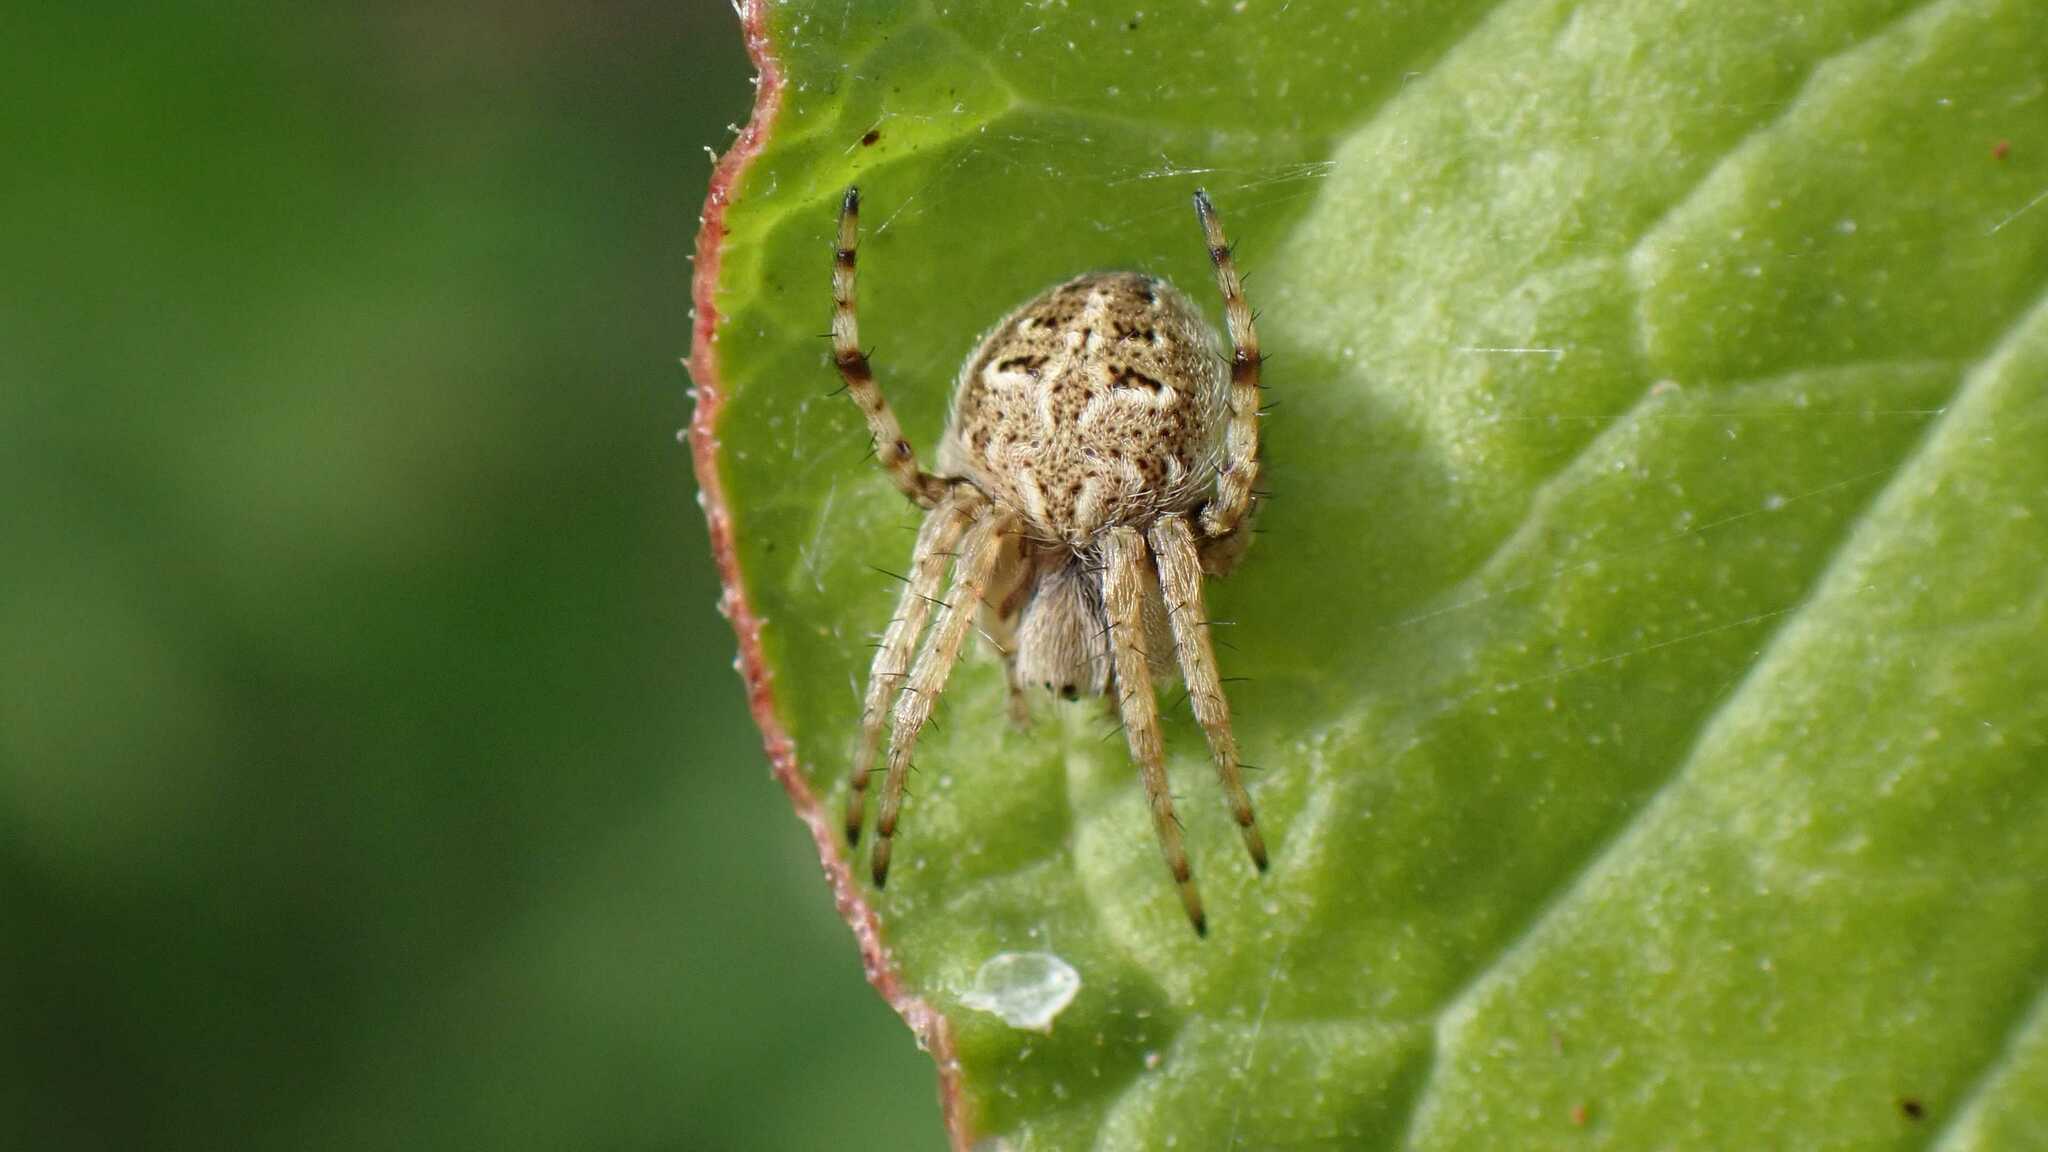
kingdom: Animalia
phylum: Arthropoda
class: Arachnida
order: Araneae
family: Araneidae
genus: Agalenatea
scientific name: Agalenatea redii
